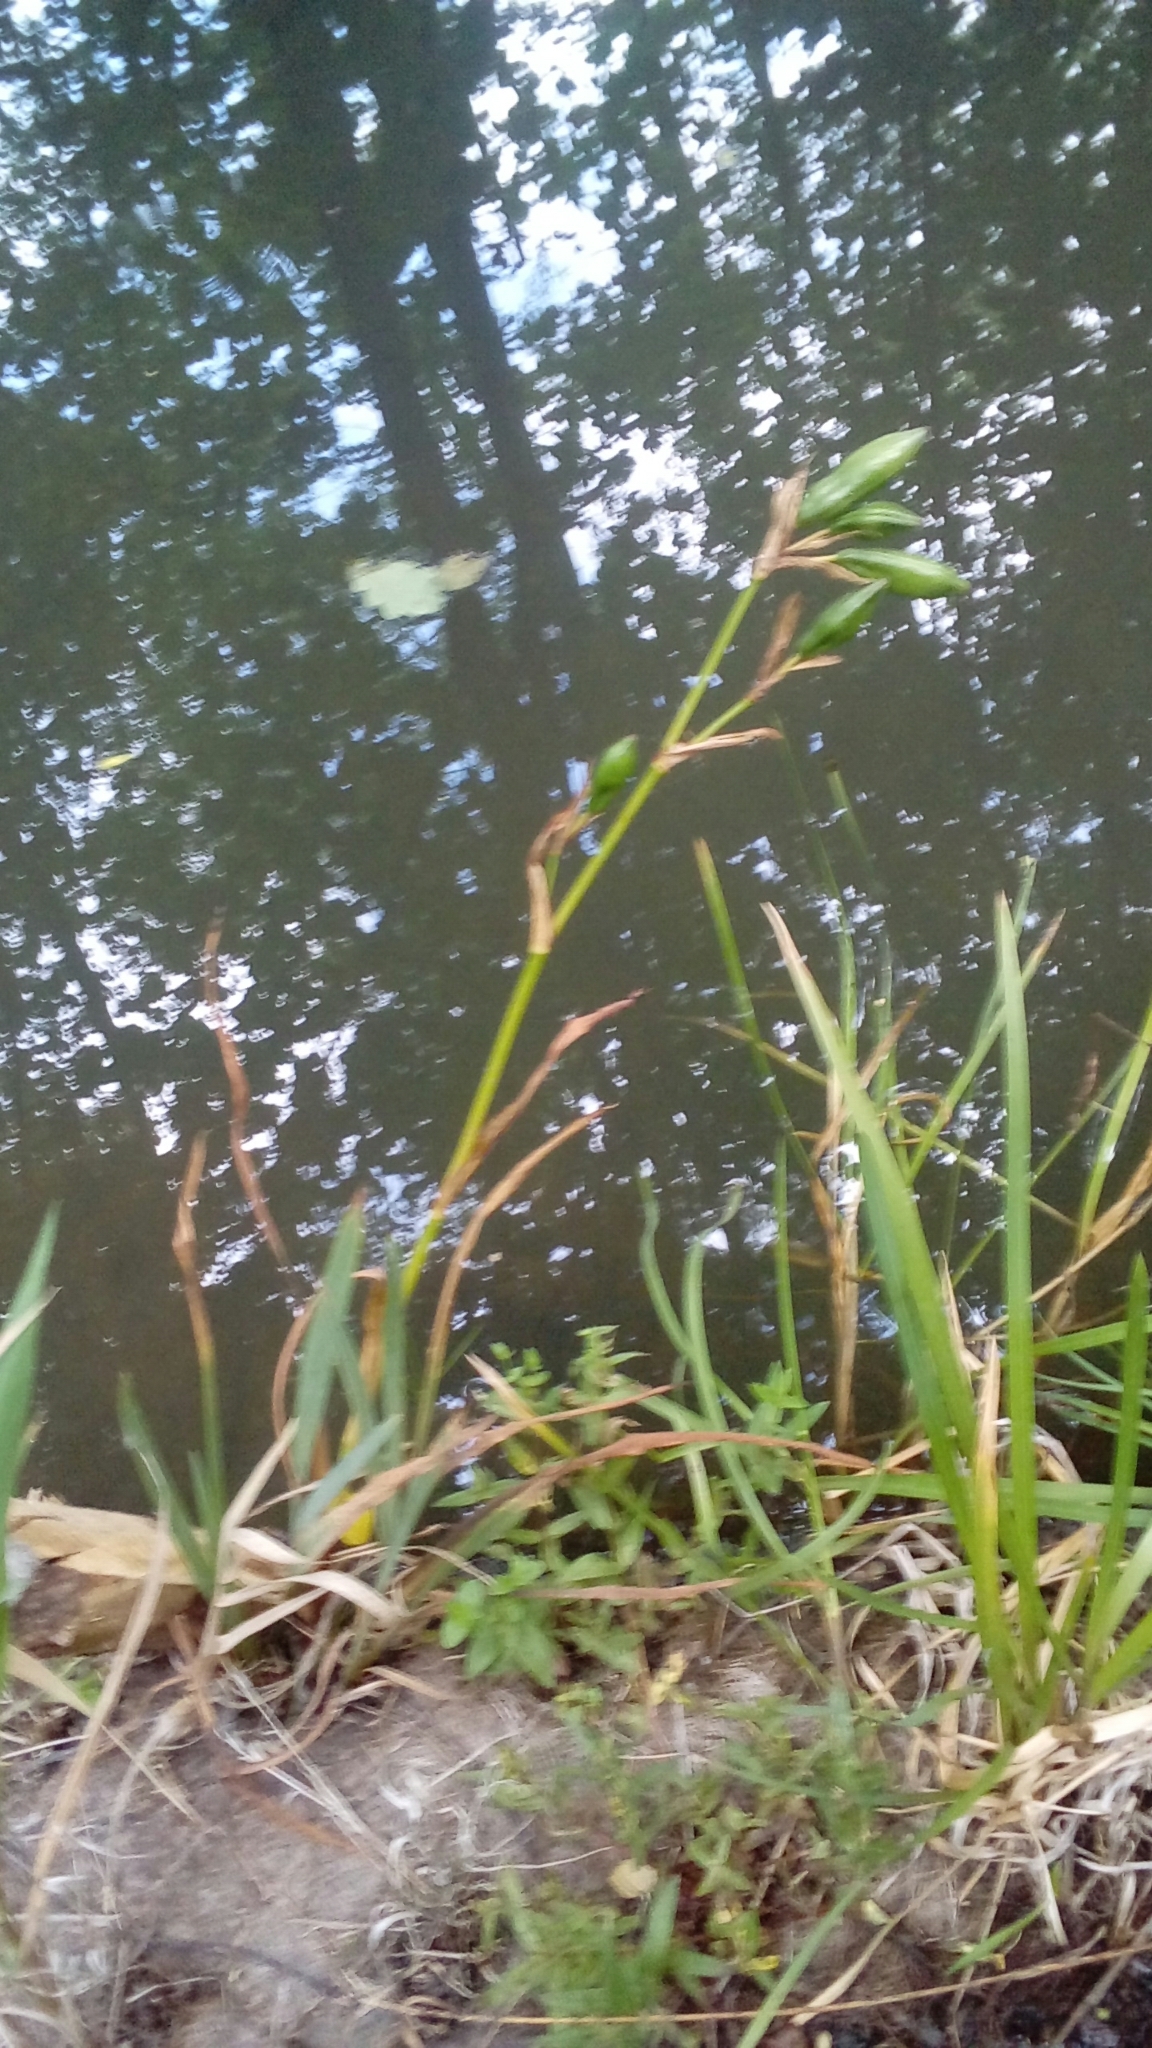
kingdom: Plantae
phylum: Tracheophyta
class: Liliopsida
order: Asparagales
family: Iridaceae
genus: Iris
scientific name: Iris pseudacorus
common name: Yellow flag
